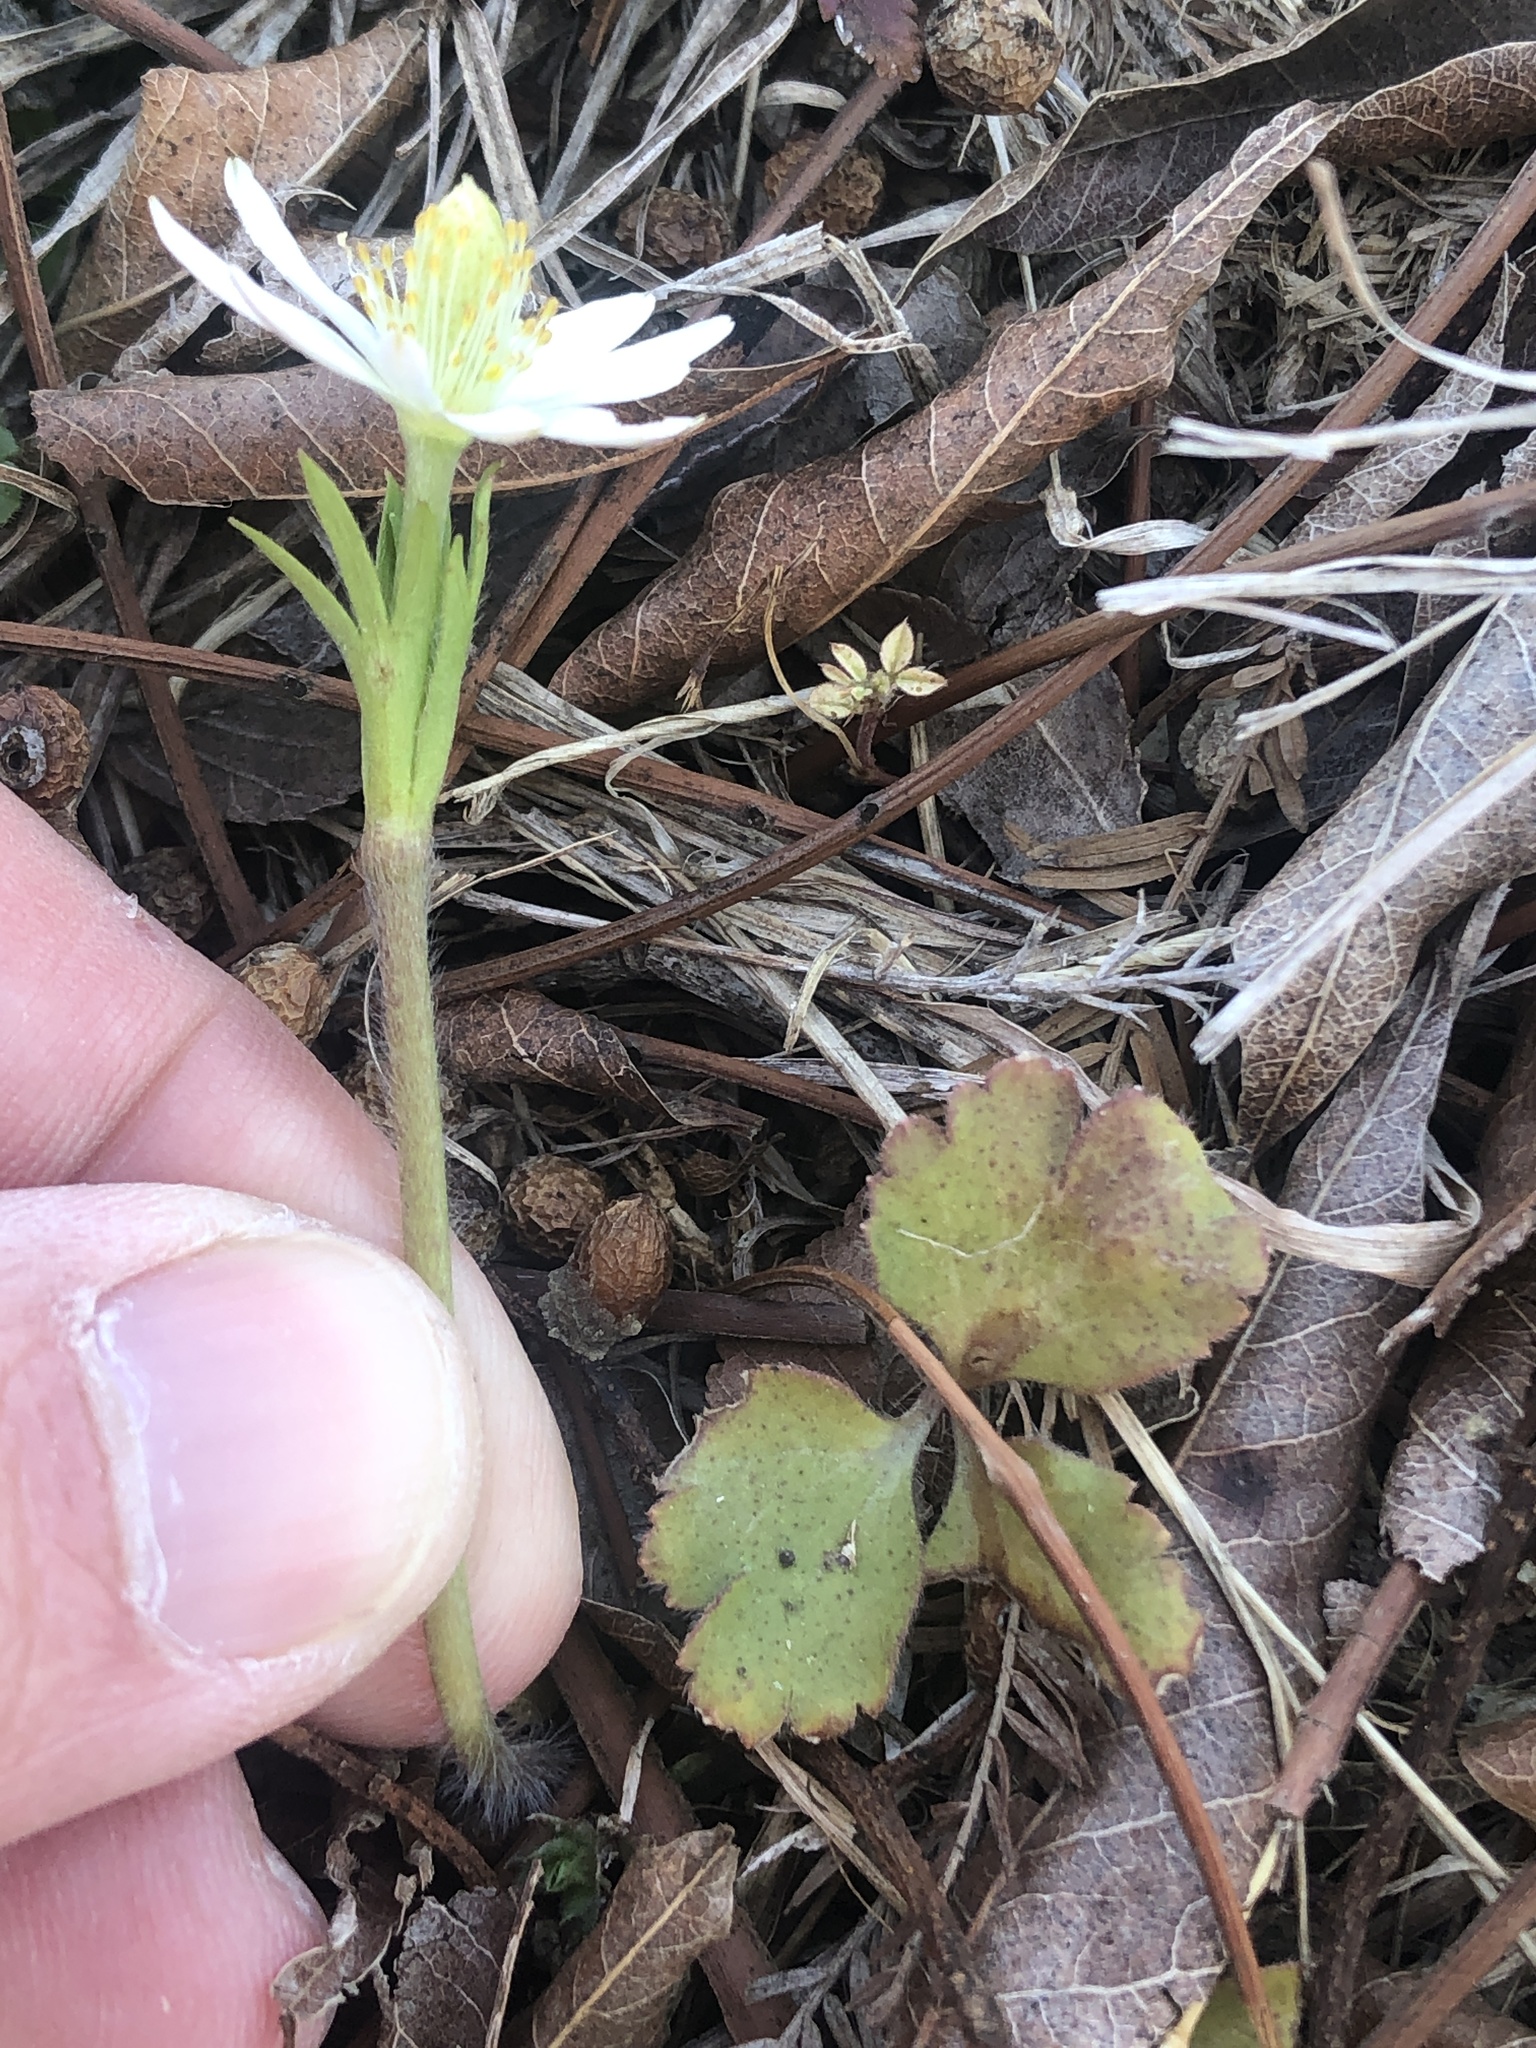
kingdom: Plantae
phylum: Tracheophyta
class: Magnoliopsida
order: Ranunculales
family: Ranunculaceae
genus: Anemone
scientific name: Anemone berlandieri
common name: Ten-petal anemone
